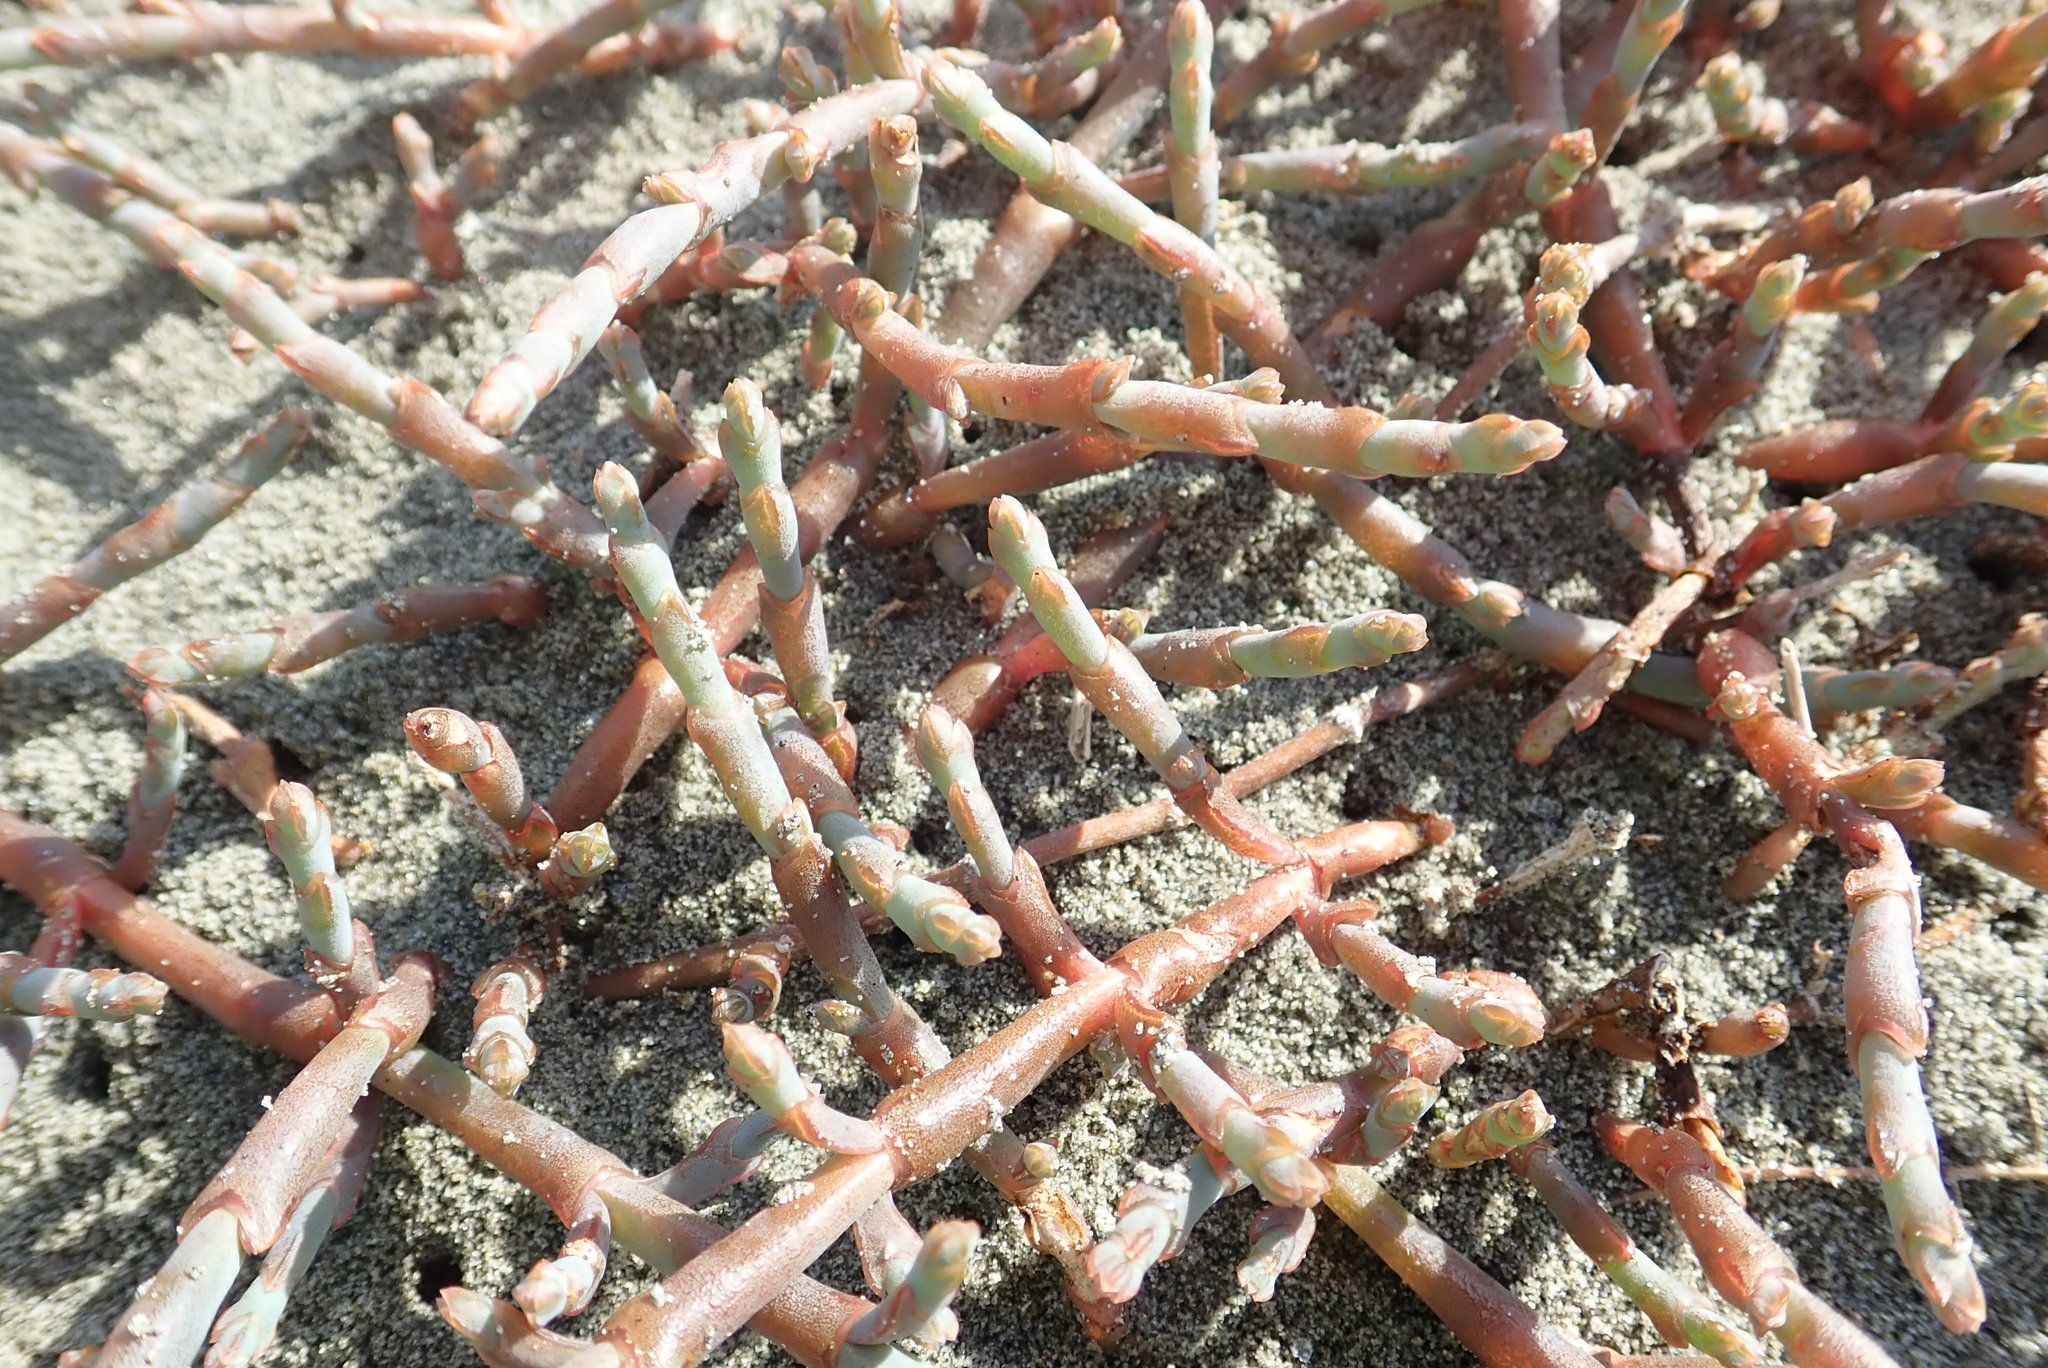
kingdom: Plantae
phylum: Tracheophyta
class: Magnoliopsida
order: Caryophyllales
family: Amaranthaceae
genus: Salicornia
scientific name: Salicornia quinqueflora
